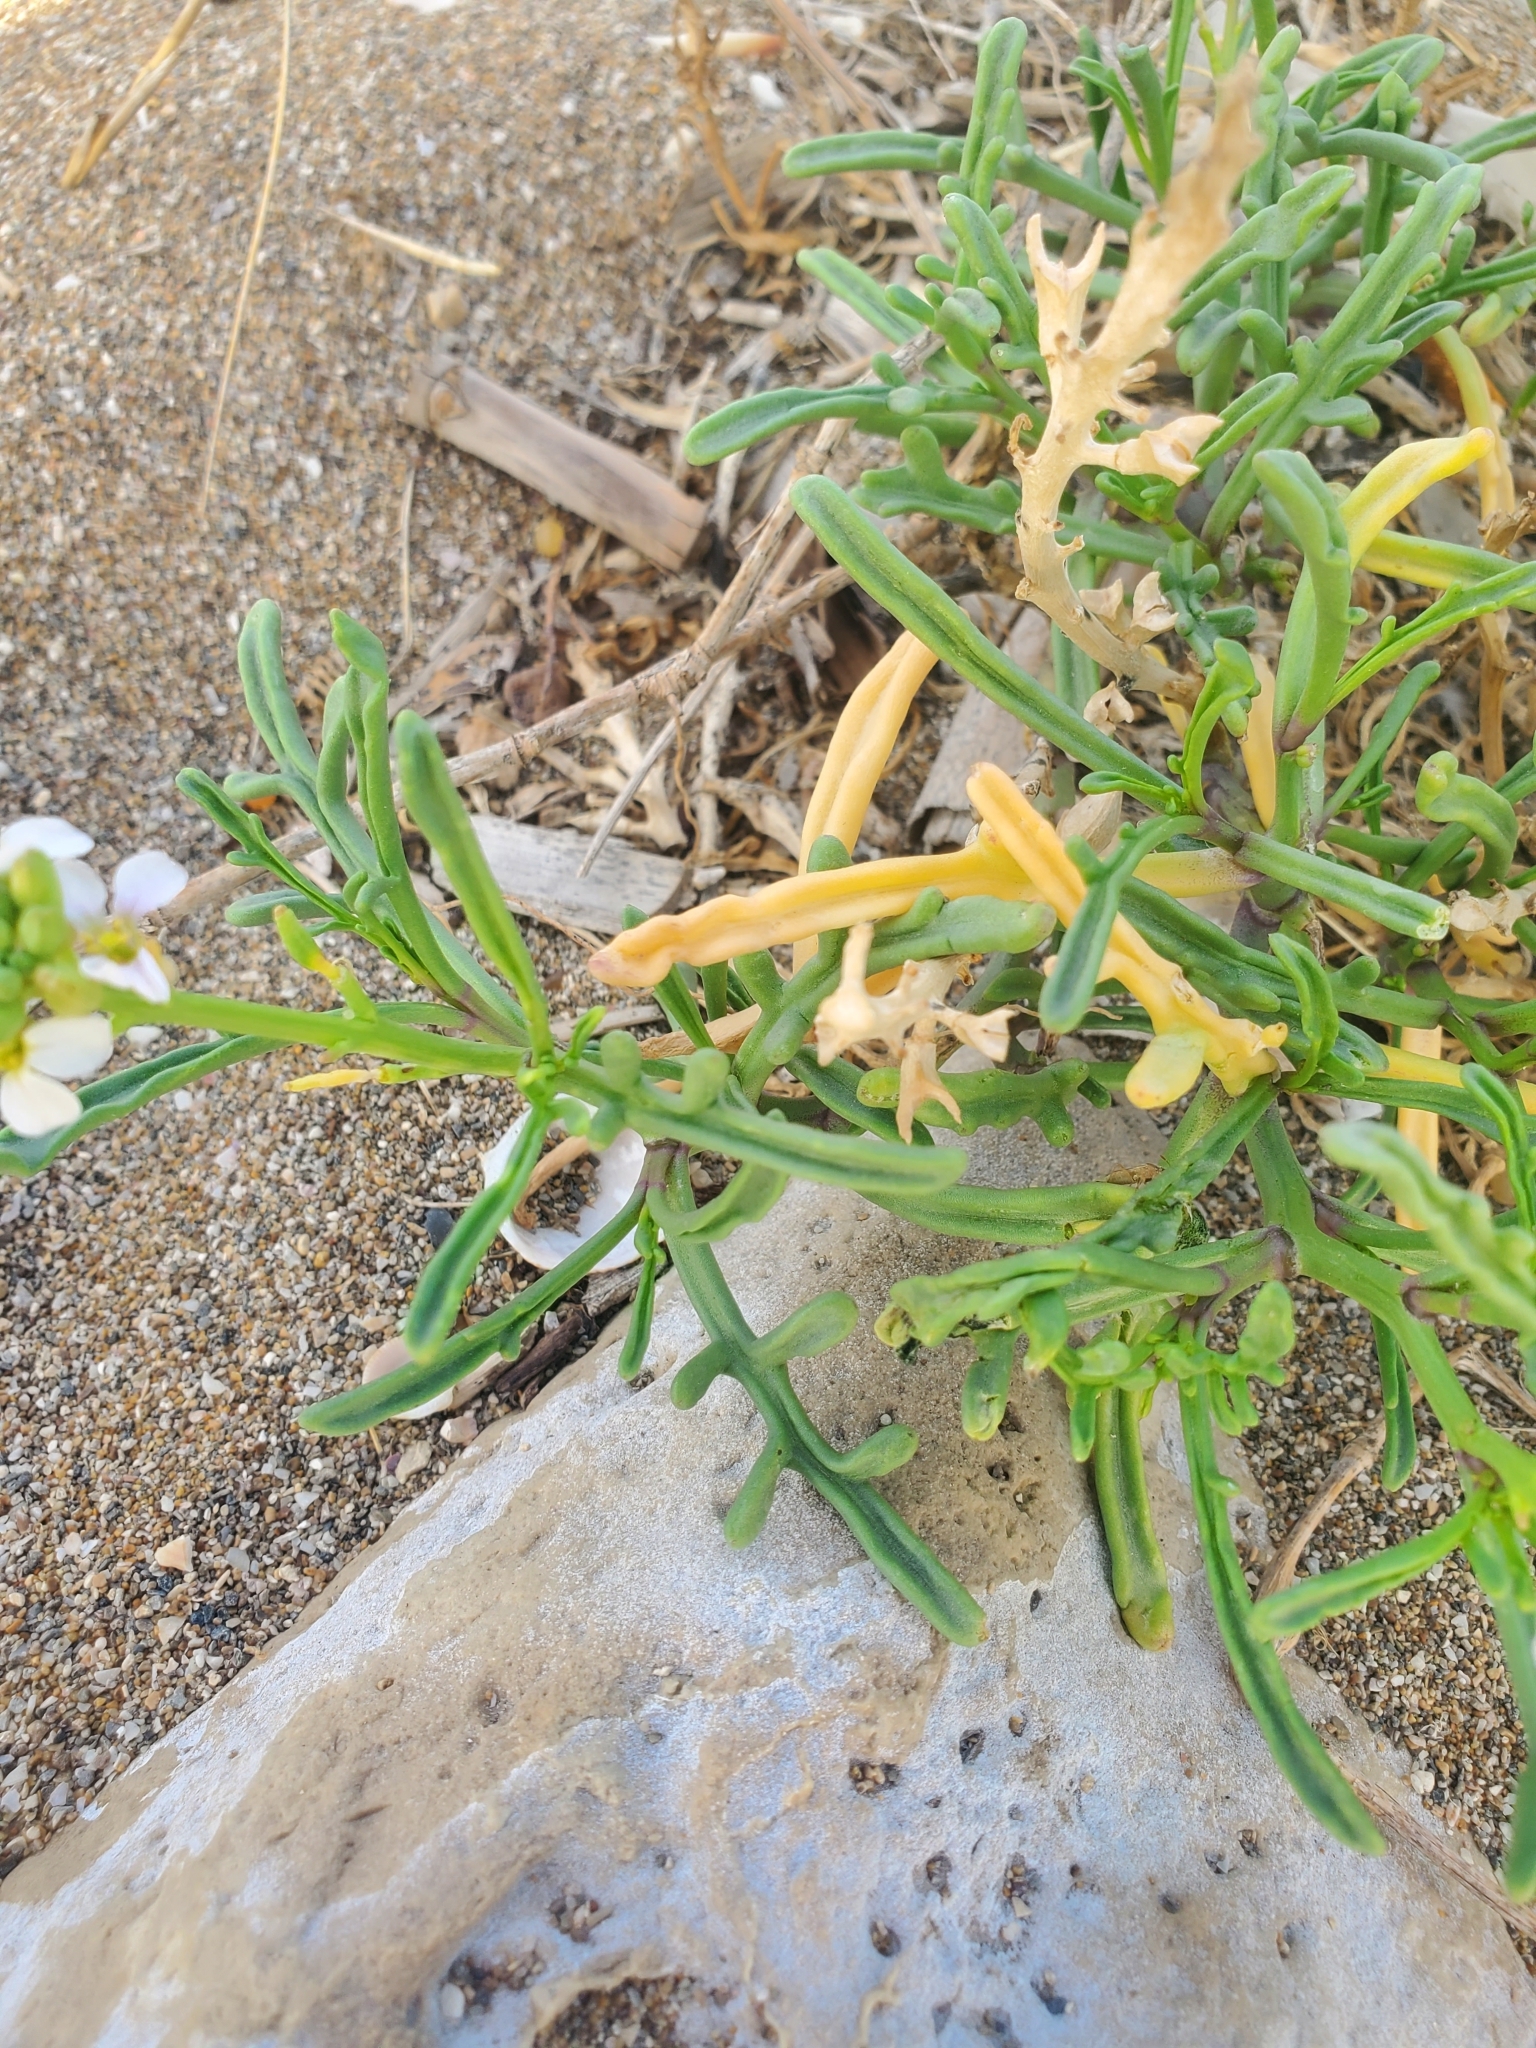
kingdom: Plantae
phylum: Tracheophyta
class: Magnoliopsida
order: Brassicales
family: Brassicaceae
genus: Cakile
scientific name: Cakile maritima
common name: Sea rocket
